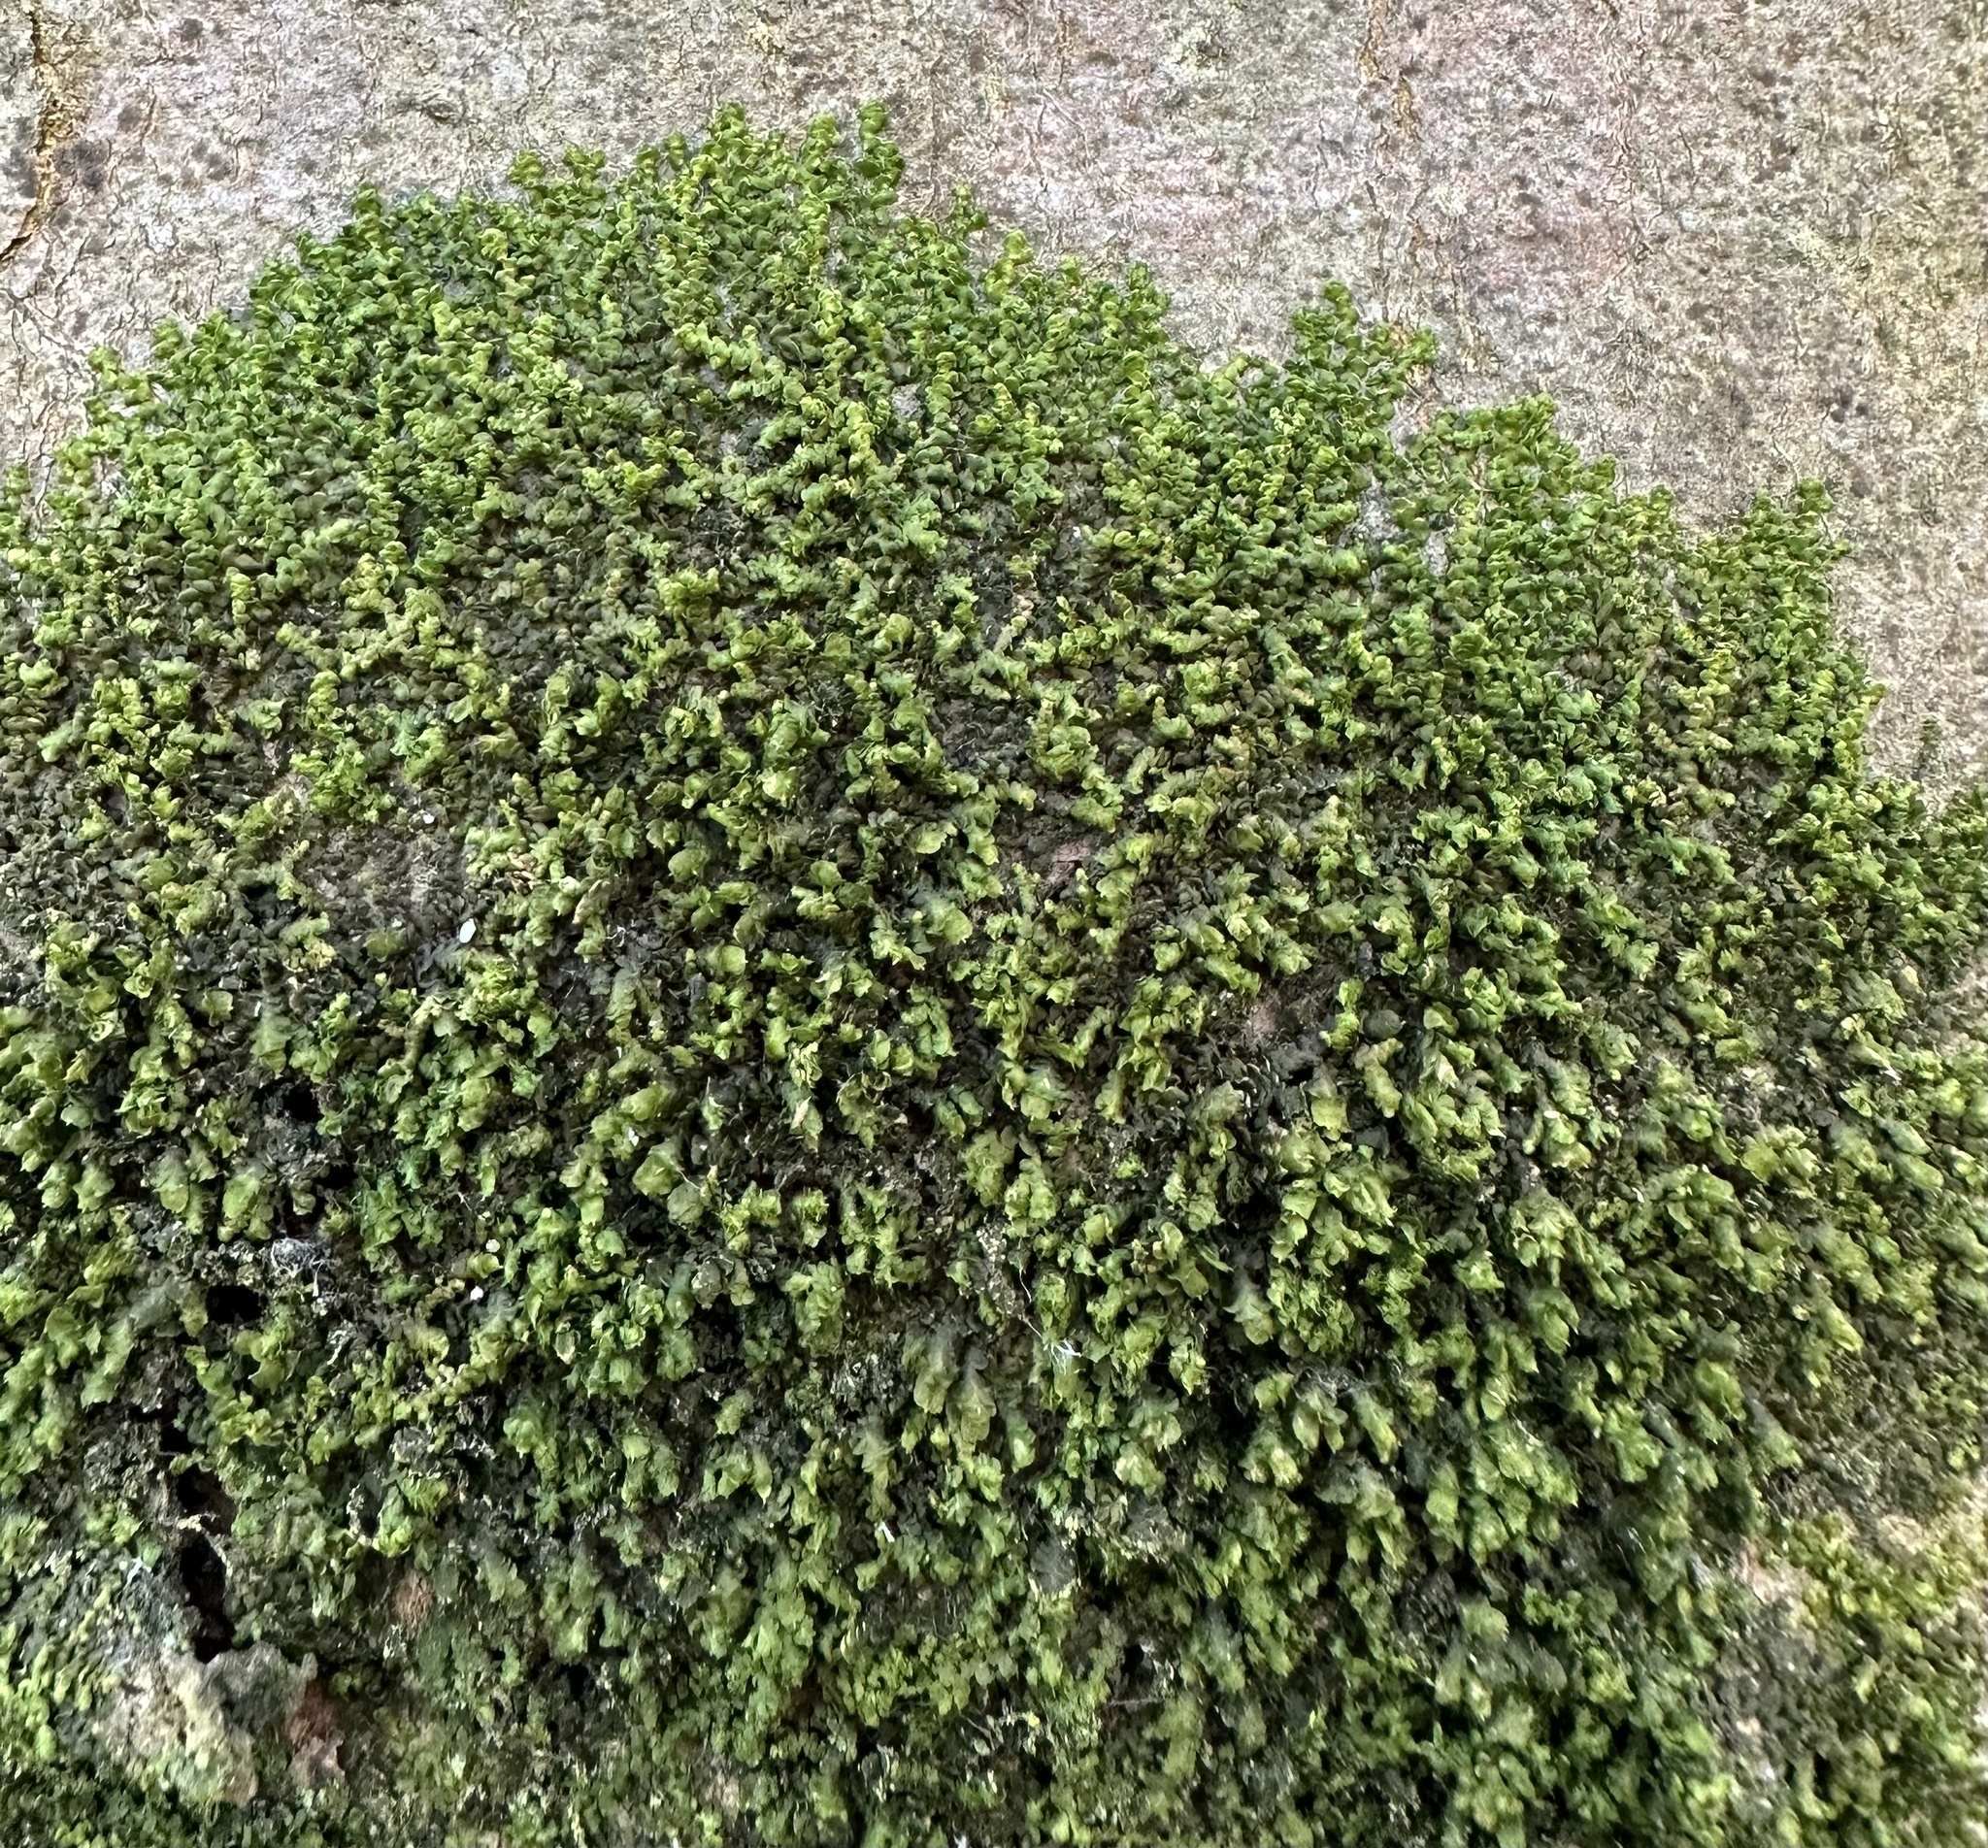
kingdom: Plantae
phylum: Marchantiophyta
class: Jungermanniopsida
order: Porellales
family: Frullaniaceae
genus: Frullania
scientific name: Frullania dilatata
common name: Dilated scalewort
